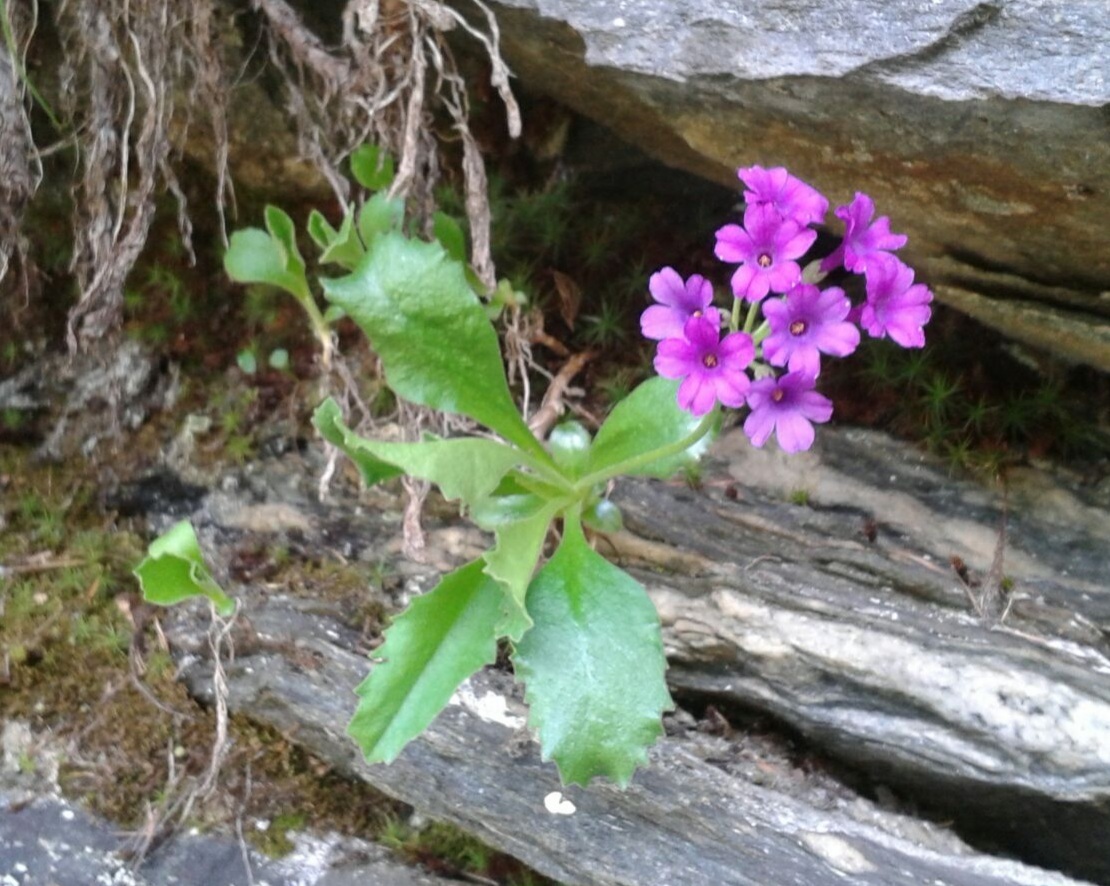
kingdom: Plantae
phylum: Tracheophyta
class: Magnoliopsida
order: Ericales
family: Primulaceae
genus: Primula
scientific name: Primula latifolia
